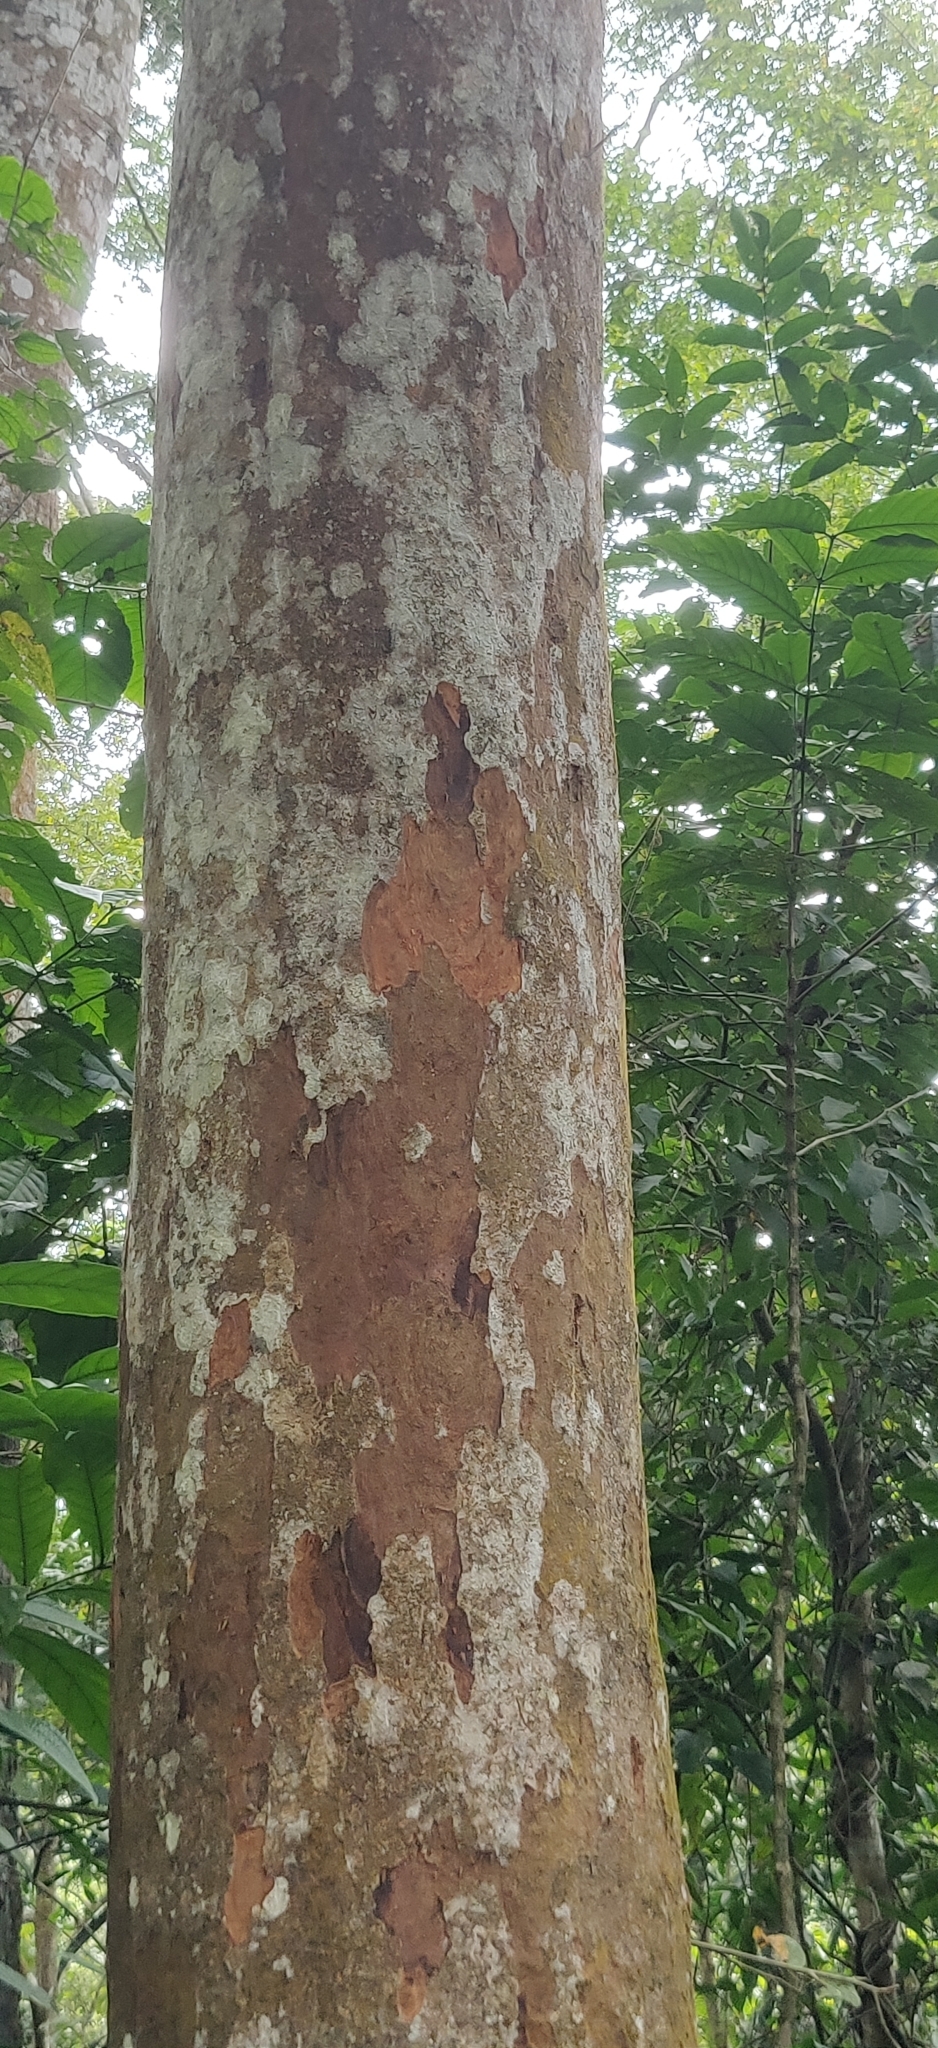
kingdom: Plantae
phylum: Tracheophyta
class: Magnoliopsida
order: Sapindales
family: Meliaceae
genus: Aglaia
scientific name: Aglaia elaeagnoidea
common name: Droopyleaf
